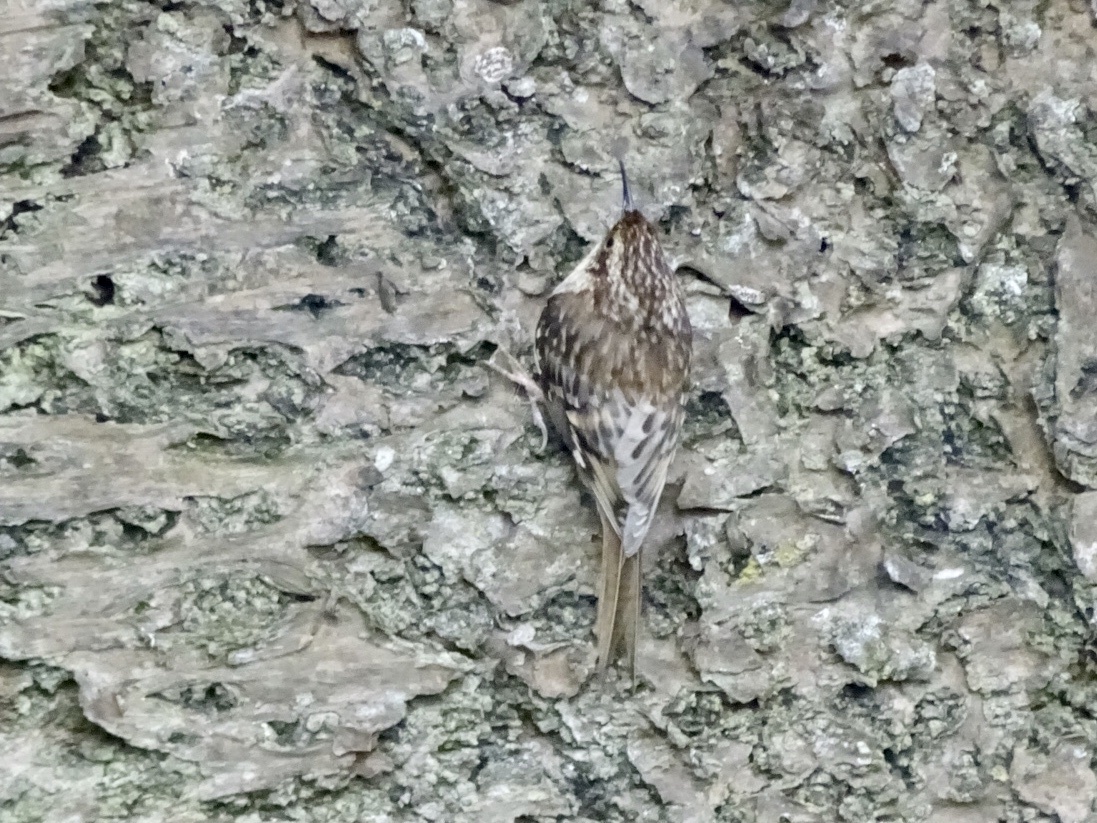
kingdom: Animalia
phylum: Chordata
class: Aves
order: Passeriformes
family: Certhiidae
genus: Certhia
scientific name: Certhia americana
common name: Brown creeper
